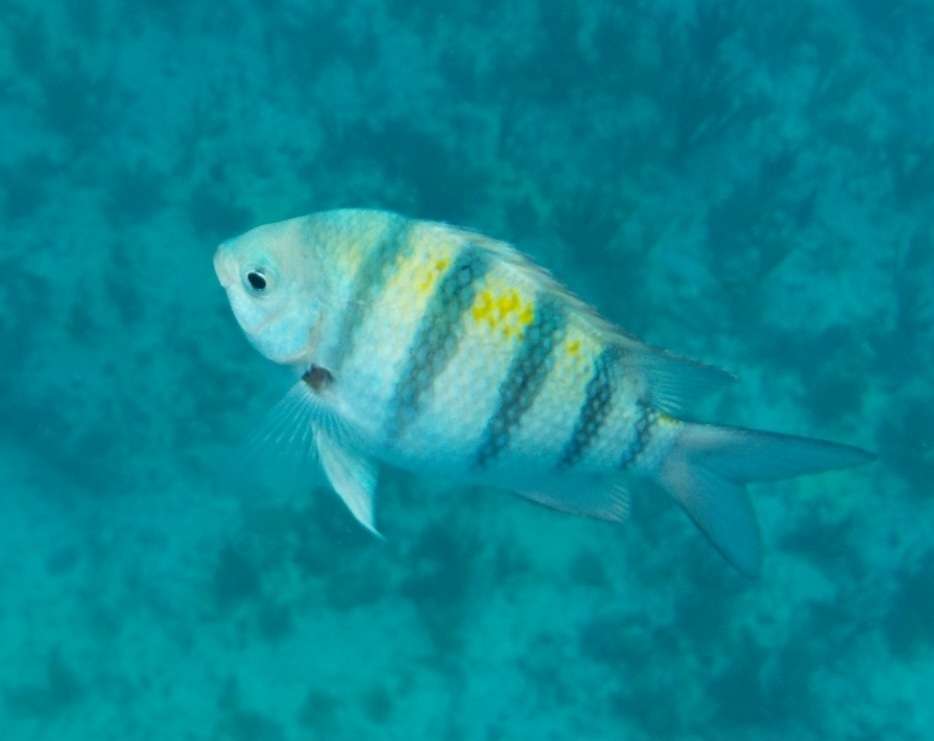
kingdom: Animalia
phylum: Chordata
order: Perciformes
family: Pomacentridae
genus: Abudefduf
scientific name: Abudefduf saxatilis
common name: Sergeant major
